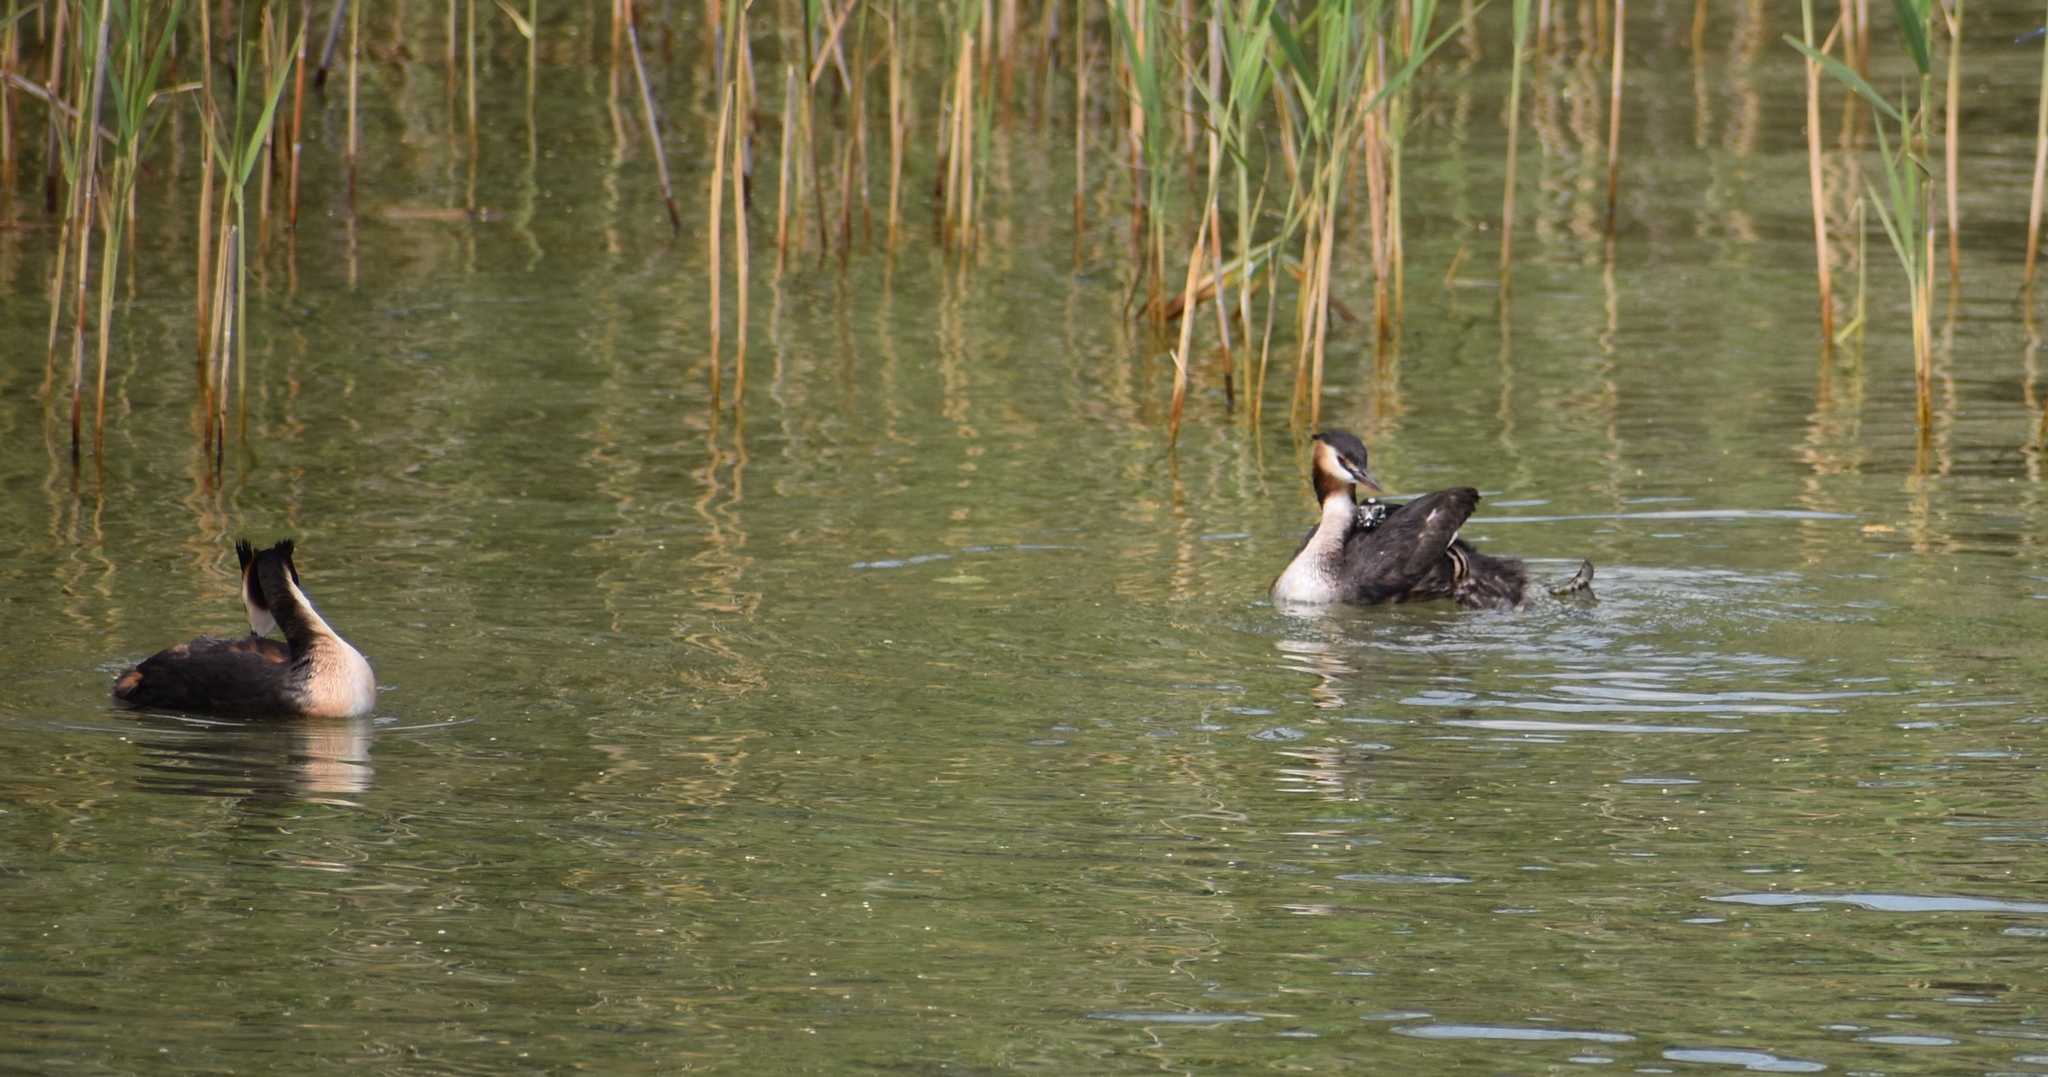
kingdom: Animalia
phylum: Chordata
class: Aves
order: Podicipediformes
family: Podicipedidae
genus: Podiceps
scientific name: Podiceps cristatus
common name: Great crested grebe
